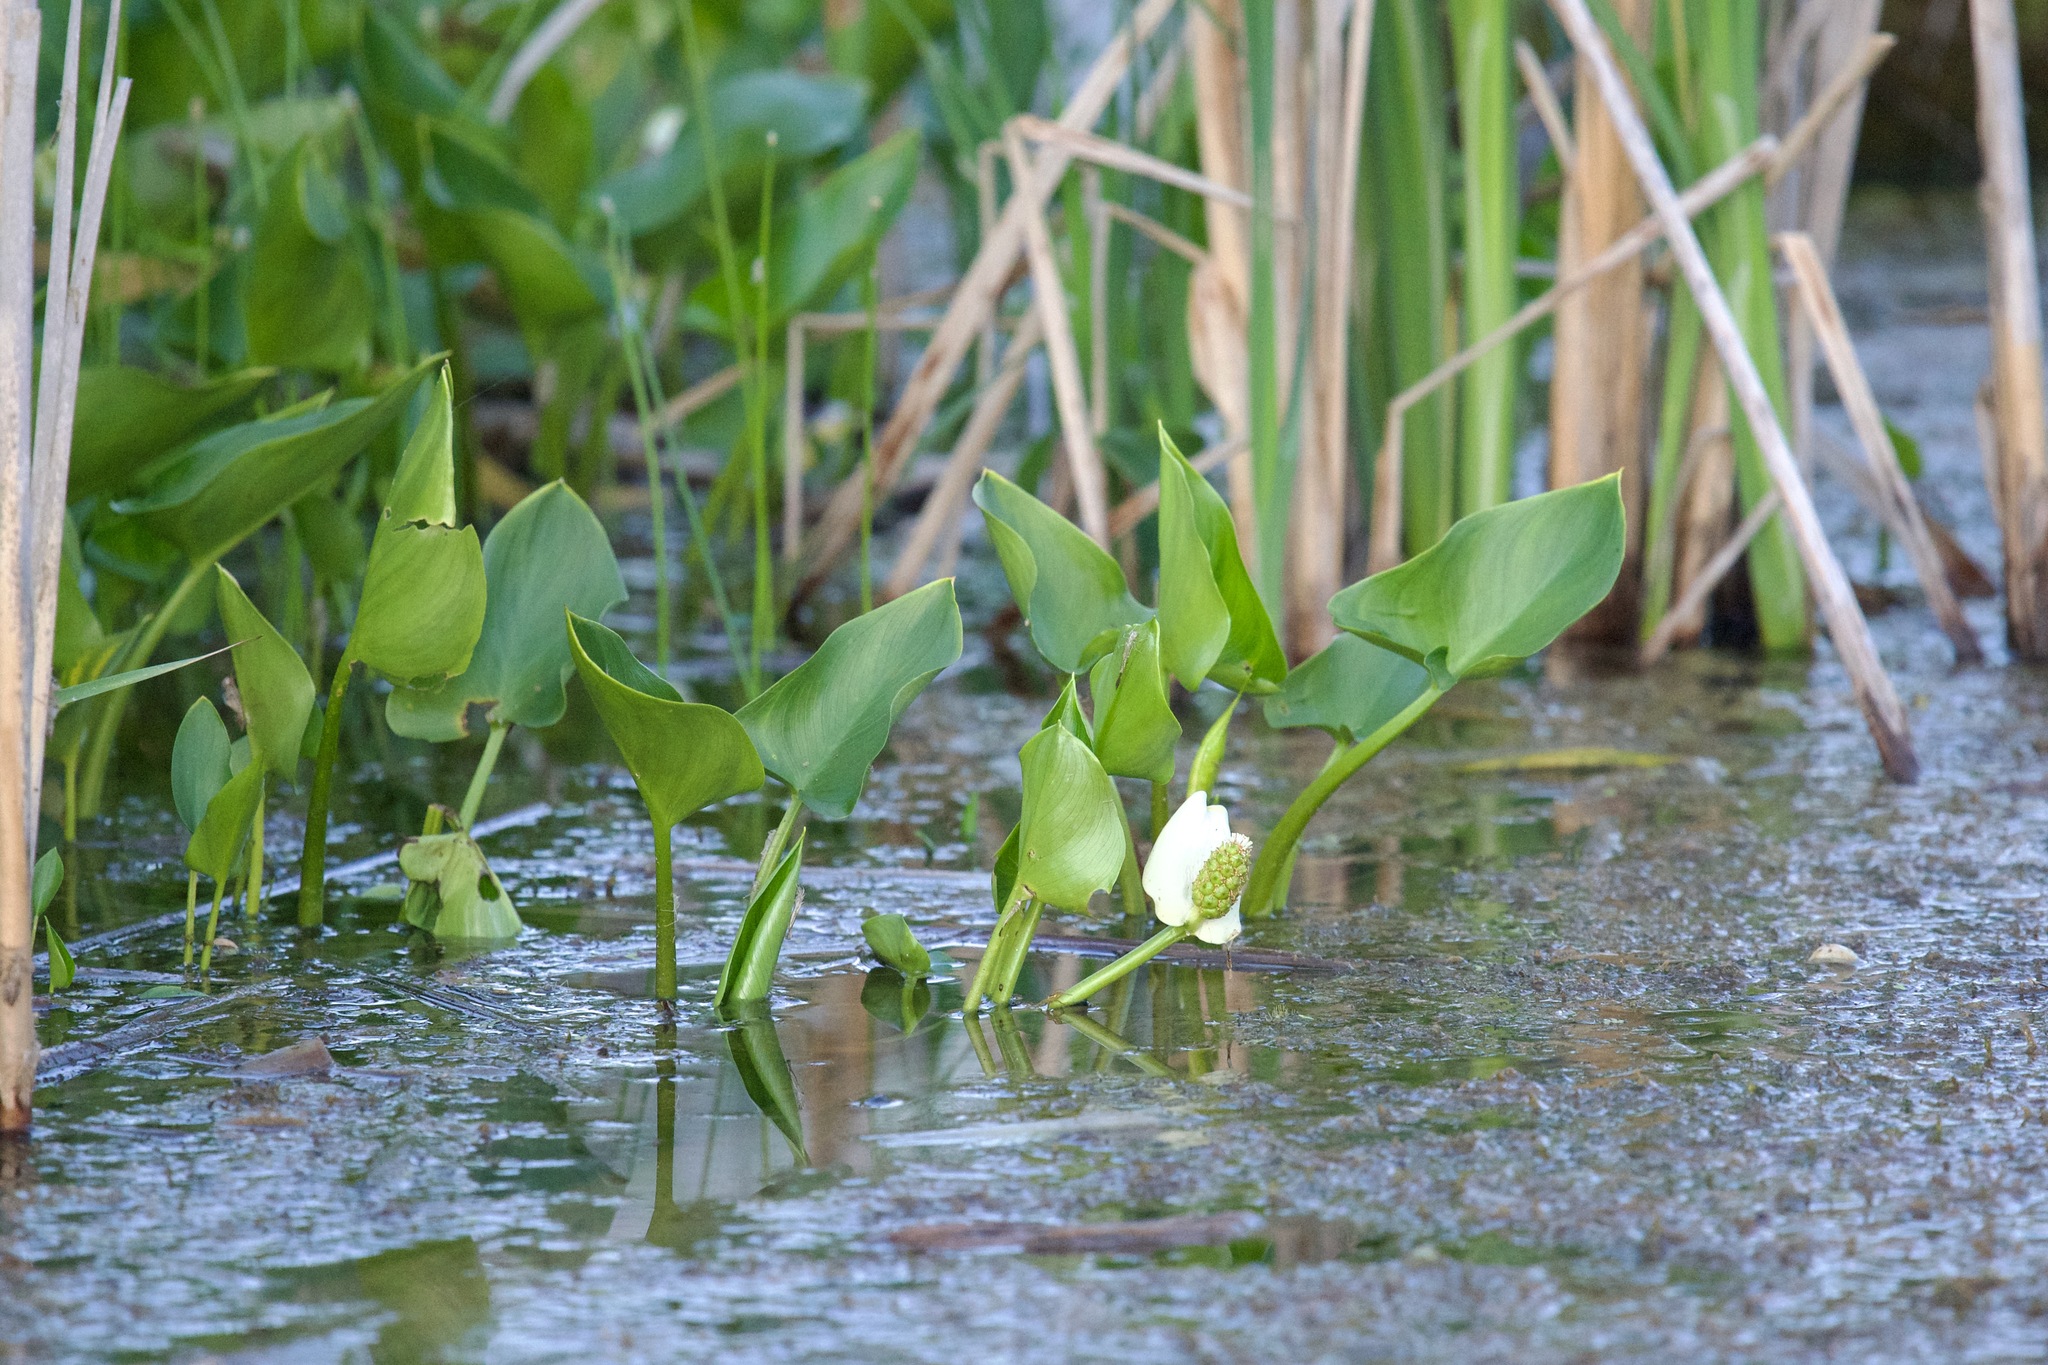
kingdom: Plantae
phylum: Tracheophyta
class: Liliopsida
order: Alismatales
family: Araceae
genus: Calla
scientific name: Calla palustris
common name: Bog arum
